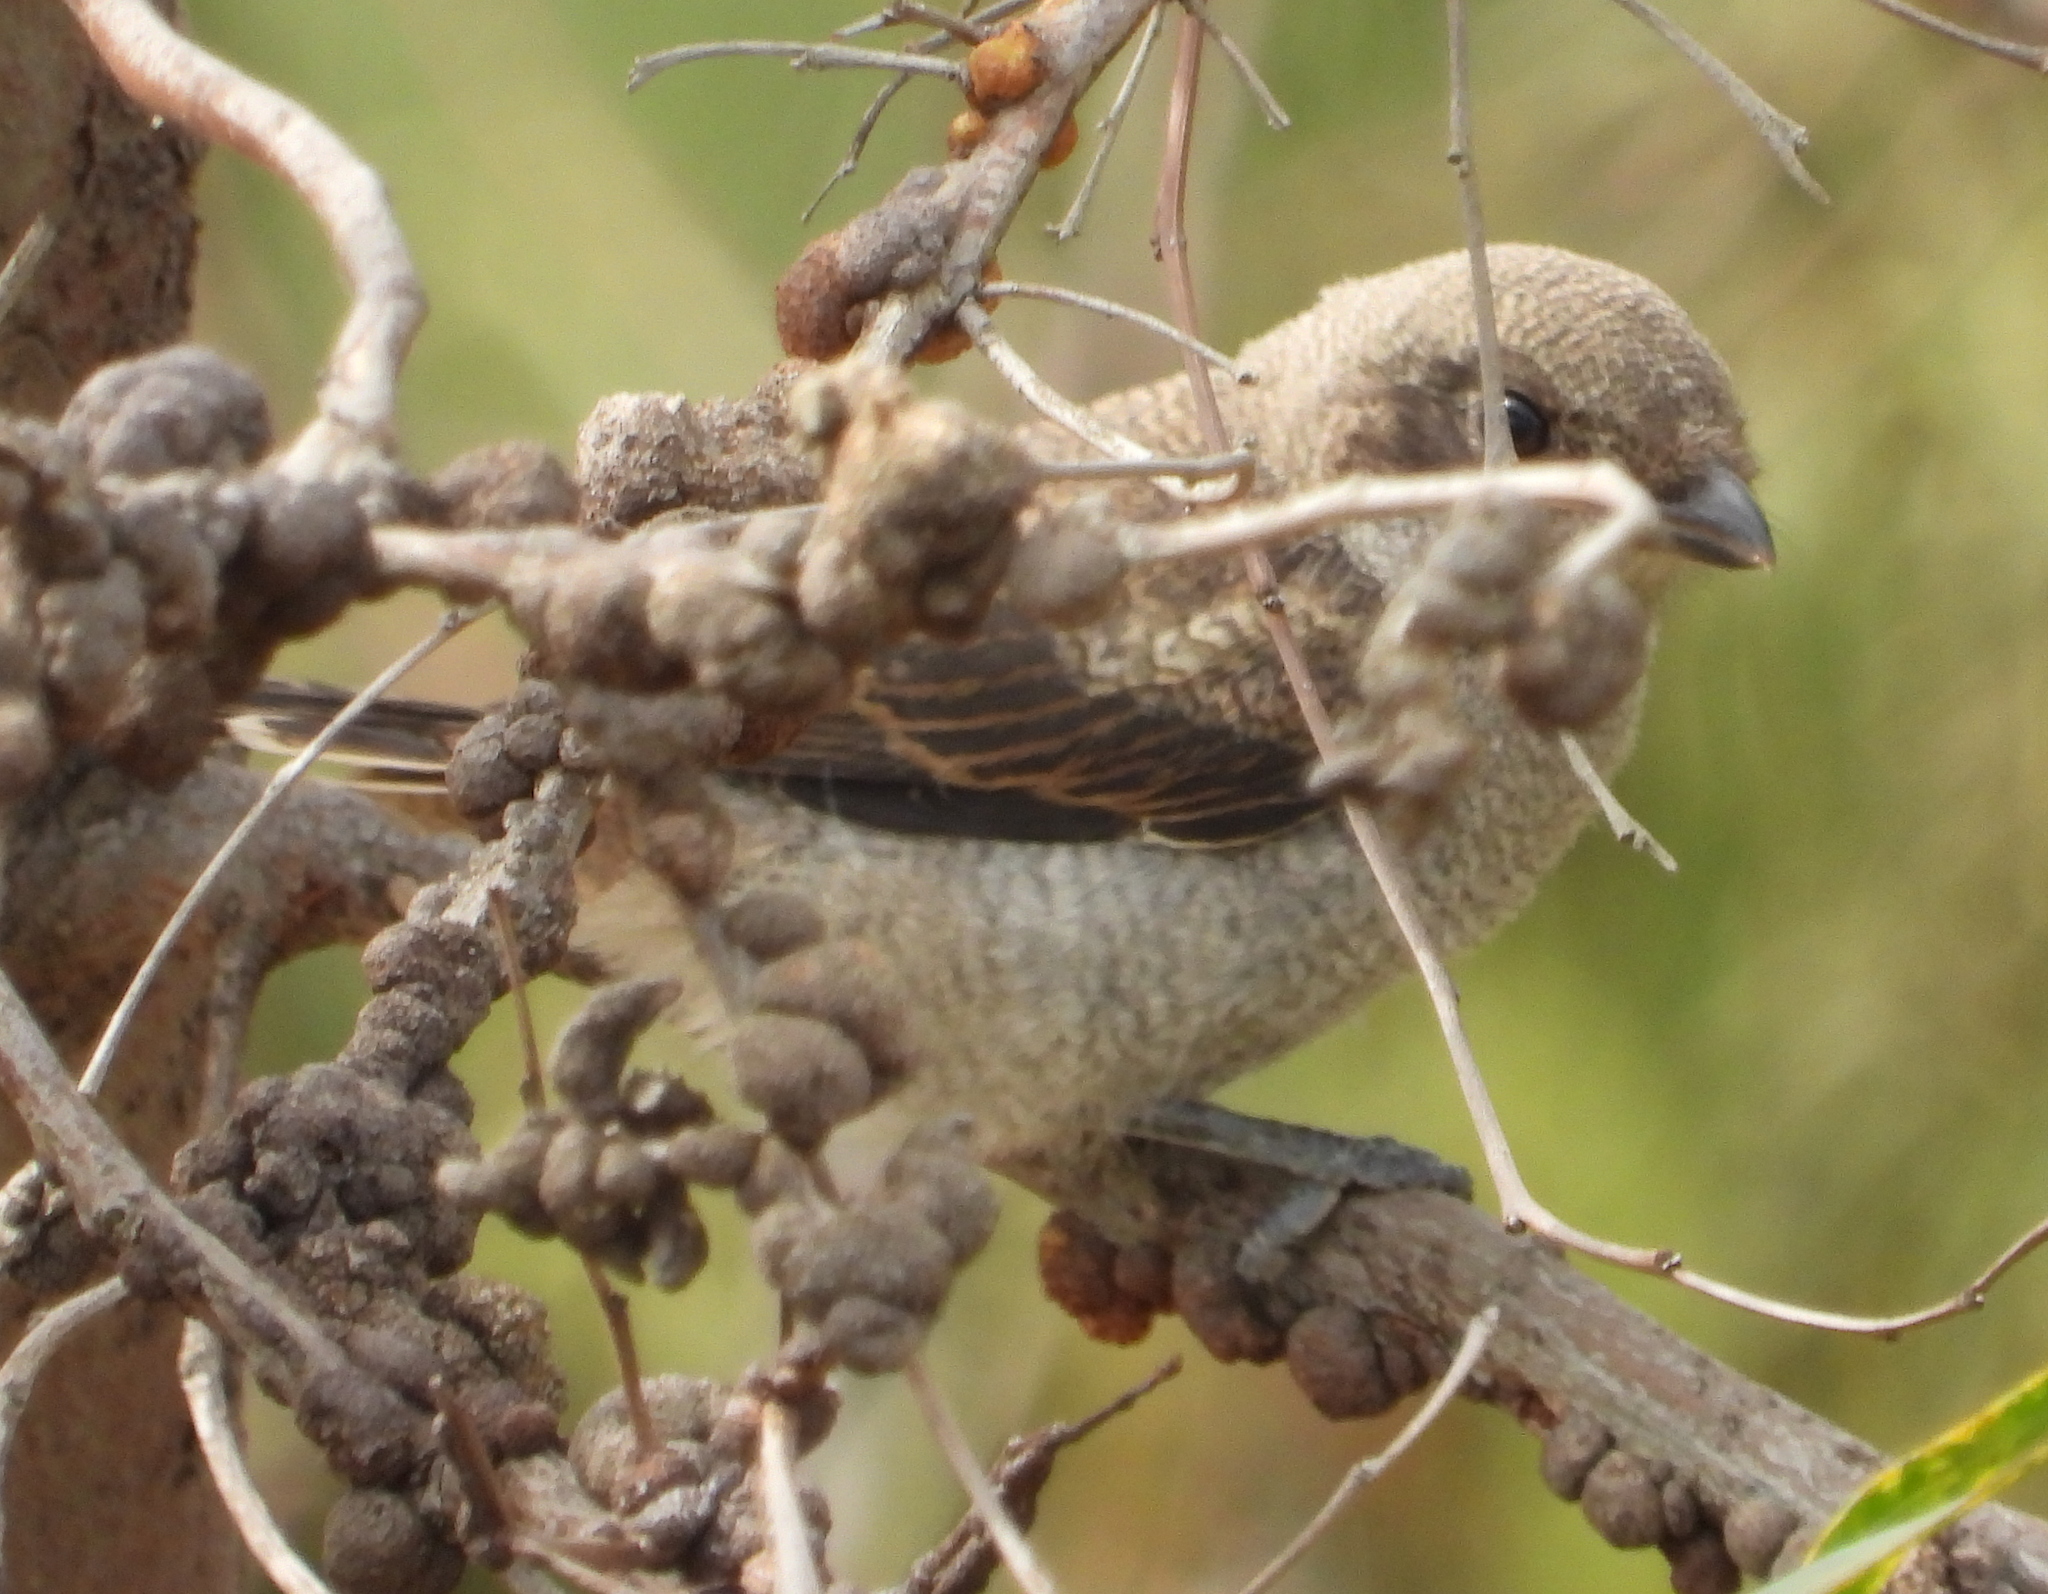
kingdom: Animalia
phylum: Chordata
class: Aves
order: Passeriformes
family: Laniidae
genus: Lanius
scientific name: Lanius collaris
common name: Southern fiscal
